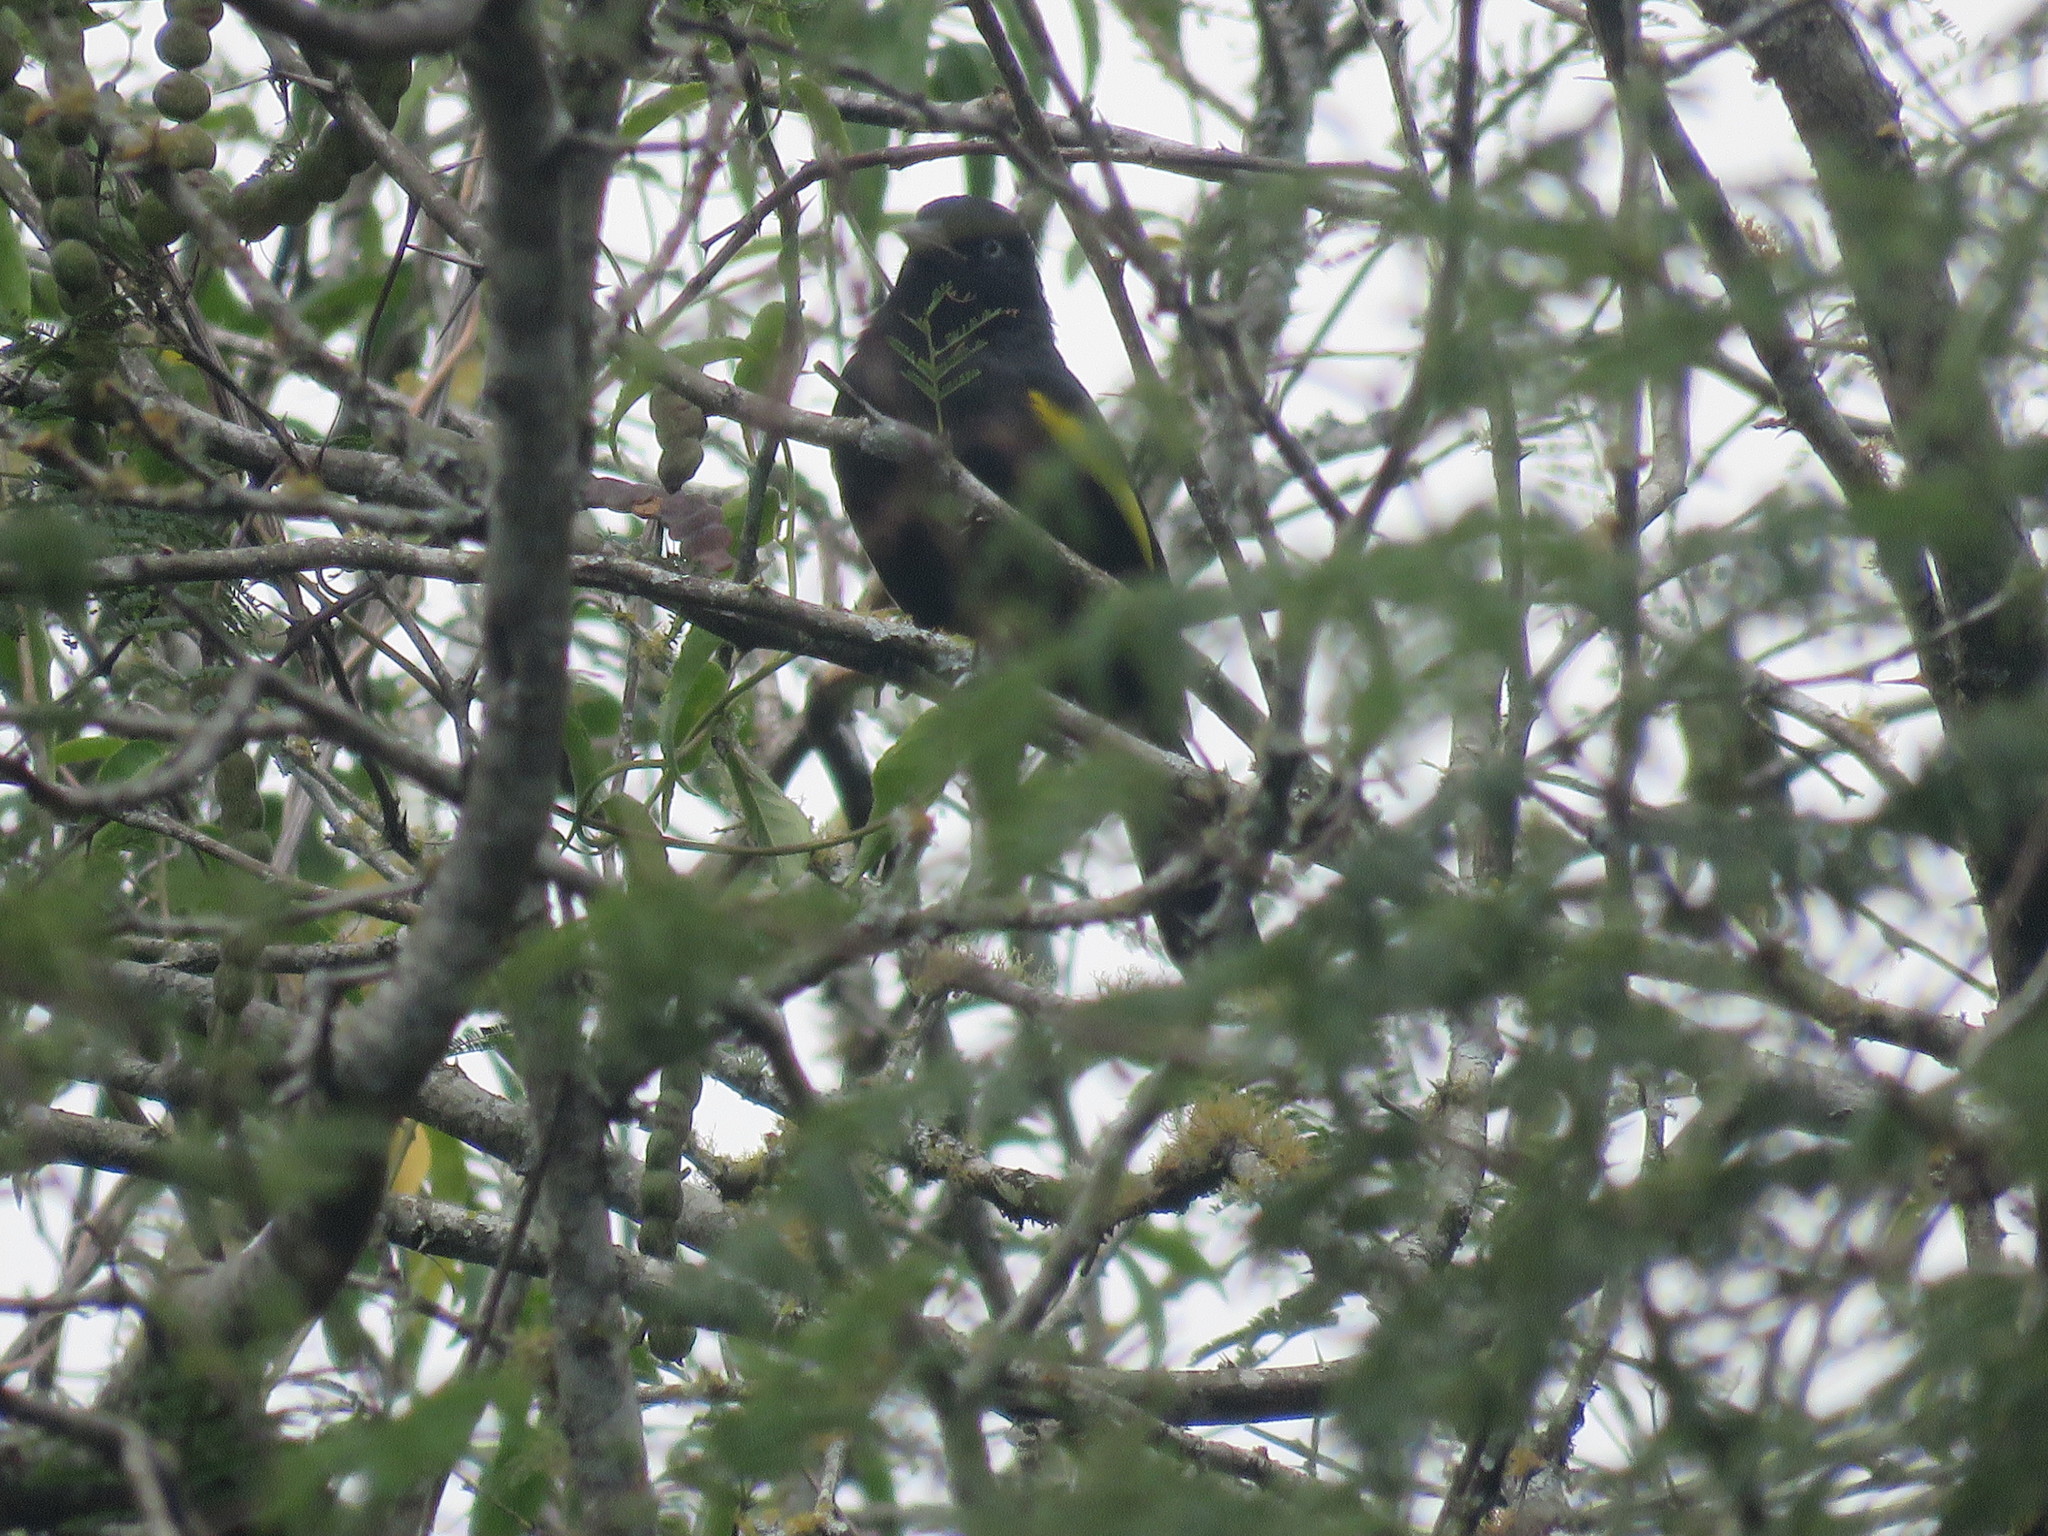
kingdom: Animalia
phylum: Chordata
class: Aves
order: Passeriformes
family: Icteridae
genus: Cacicus
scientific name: Cacicus chrysopterus
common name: Golden-winged cacique
